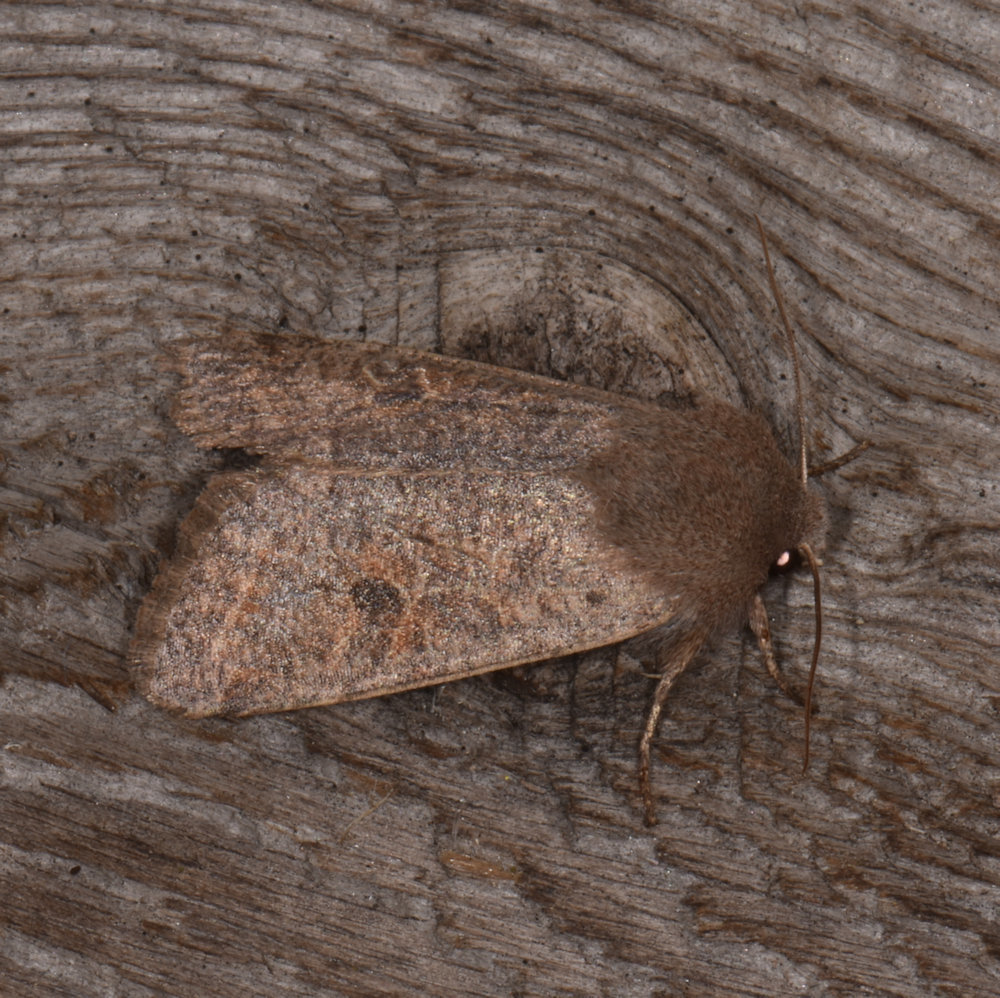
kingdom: Animalia
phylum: Arthropoda
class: Insecta
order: Lepidoptera
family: Noctuidae
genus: Orthosia
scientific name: Orthosia hibisci
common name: Green fruitworm
